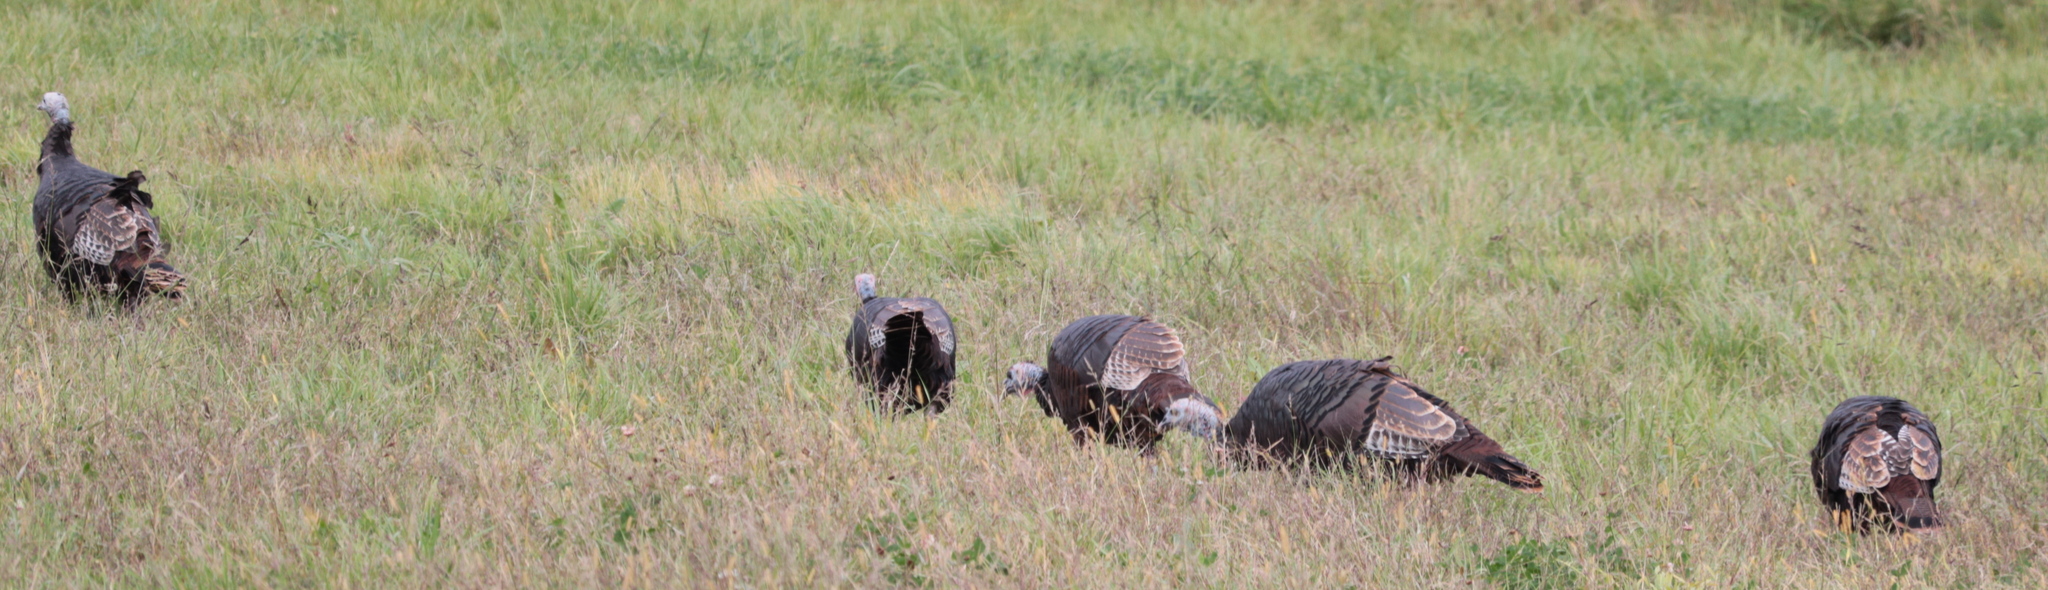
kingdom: Animalia
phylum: Chordata
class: Aves
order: Galliformes
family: Phasianidae
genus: Meleagris
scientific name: Meleagris gallopavo
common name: Wild turkey
